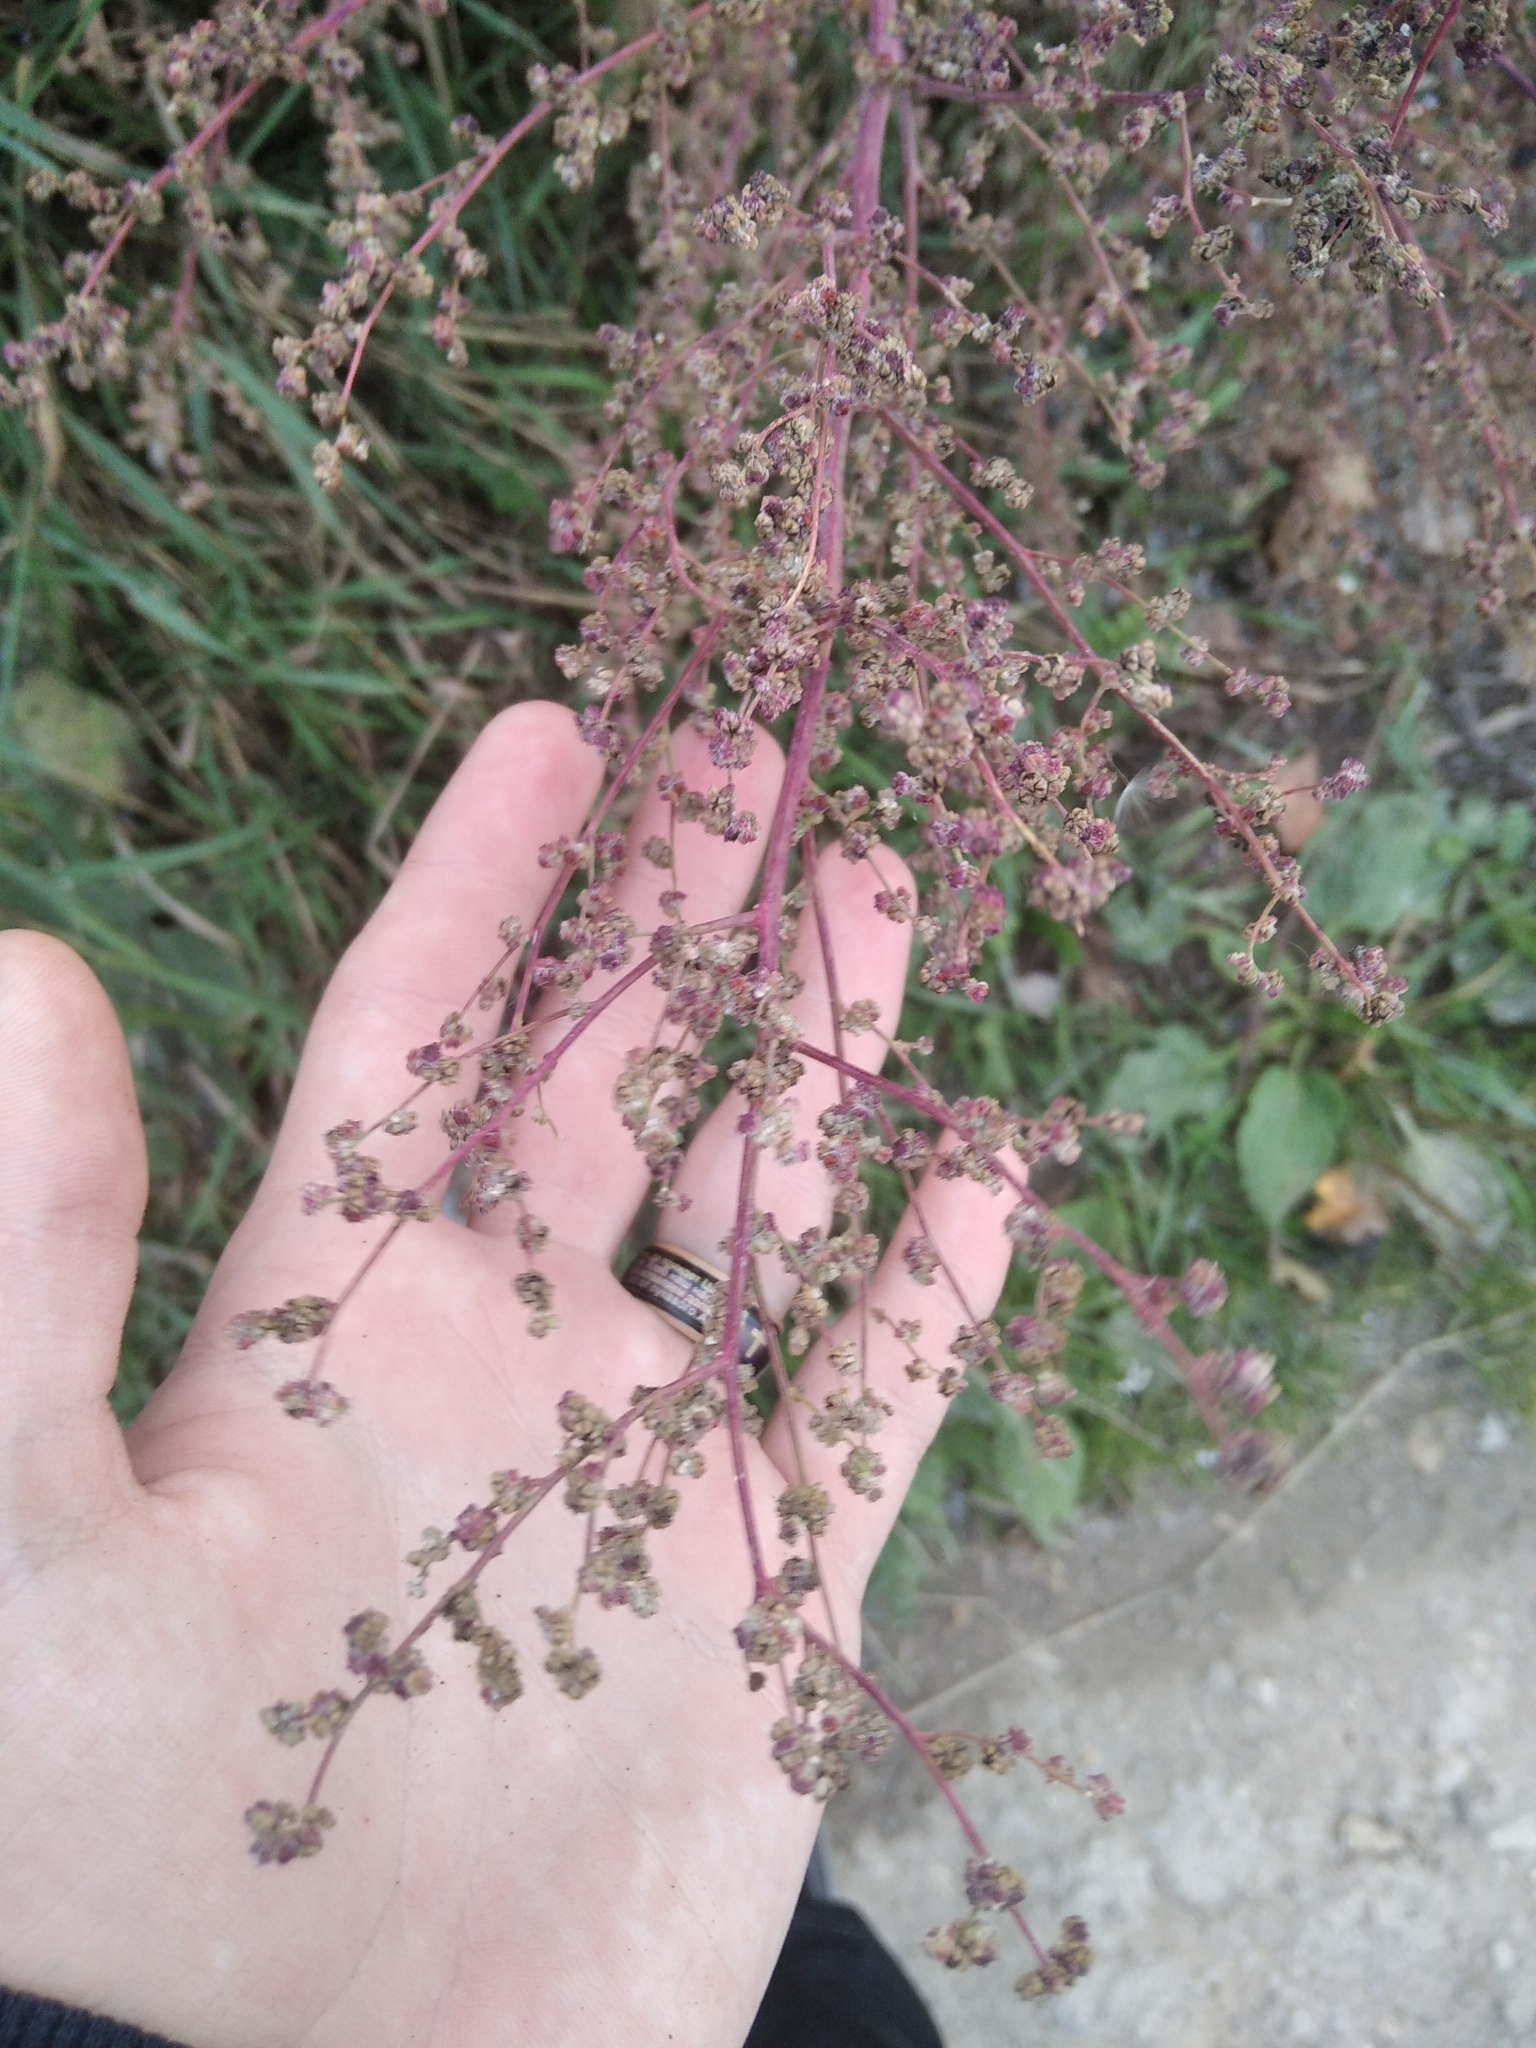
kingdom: Plantae
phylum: Tracheophyta
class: Magnoliopsida
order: Caryophyllales
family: Amaranthaceae
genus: Chenopodium
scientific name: Chenopodium album
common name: Fat-hen
